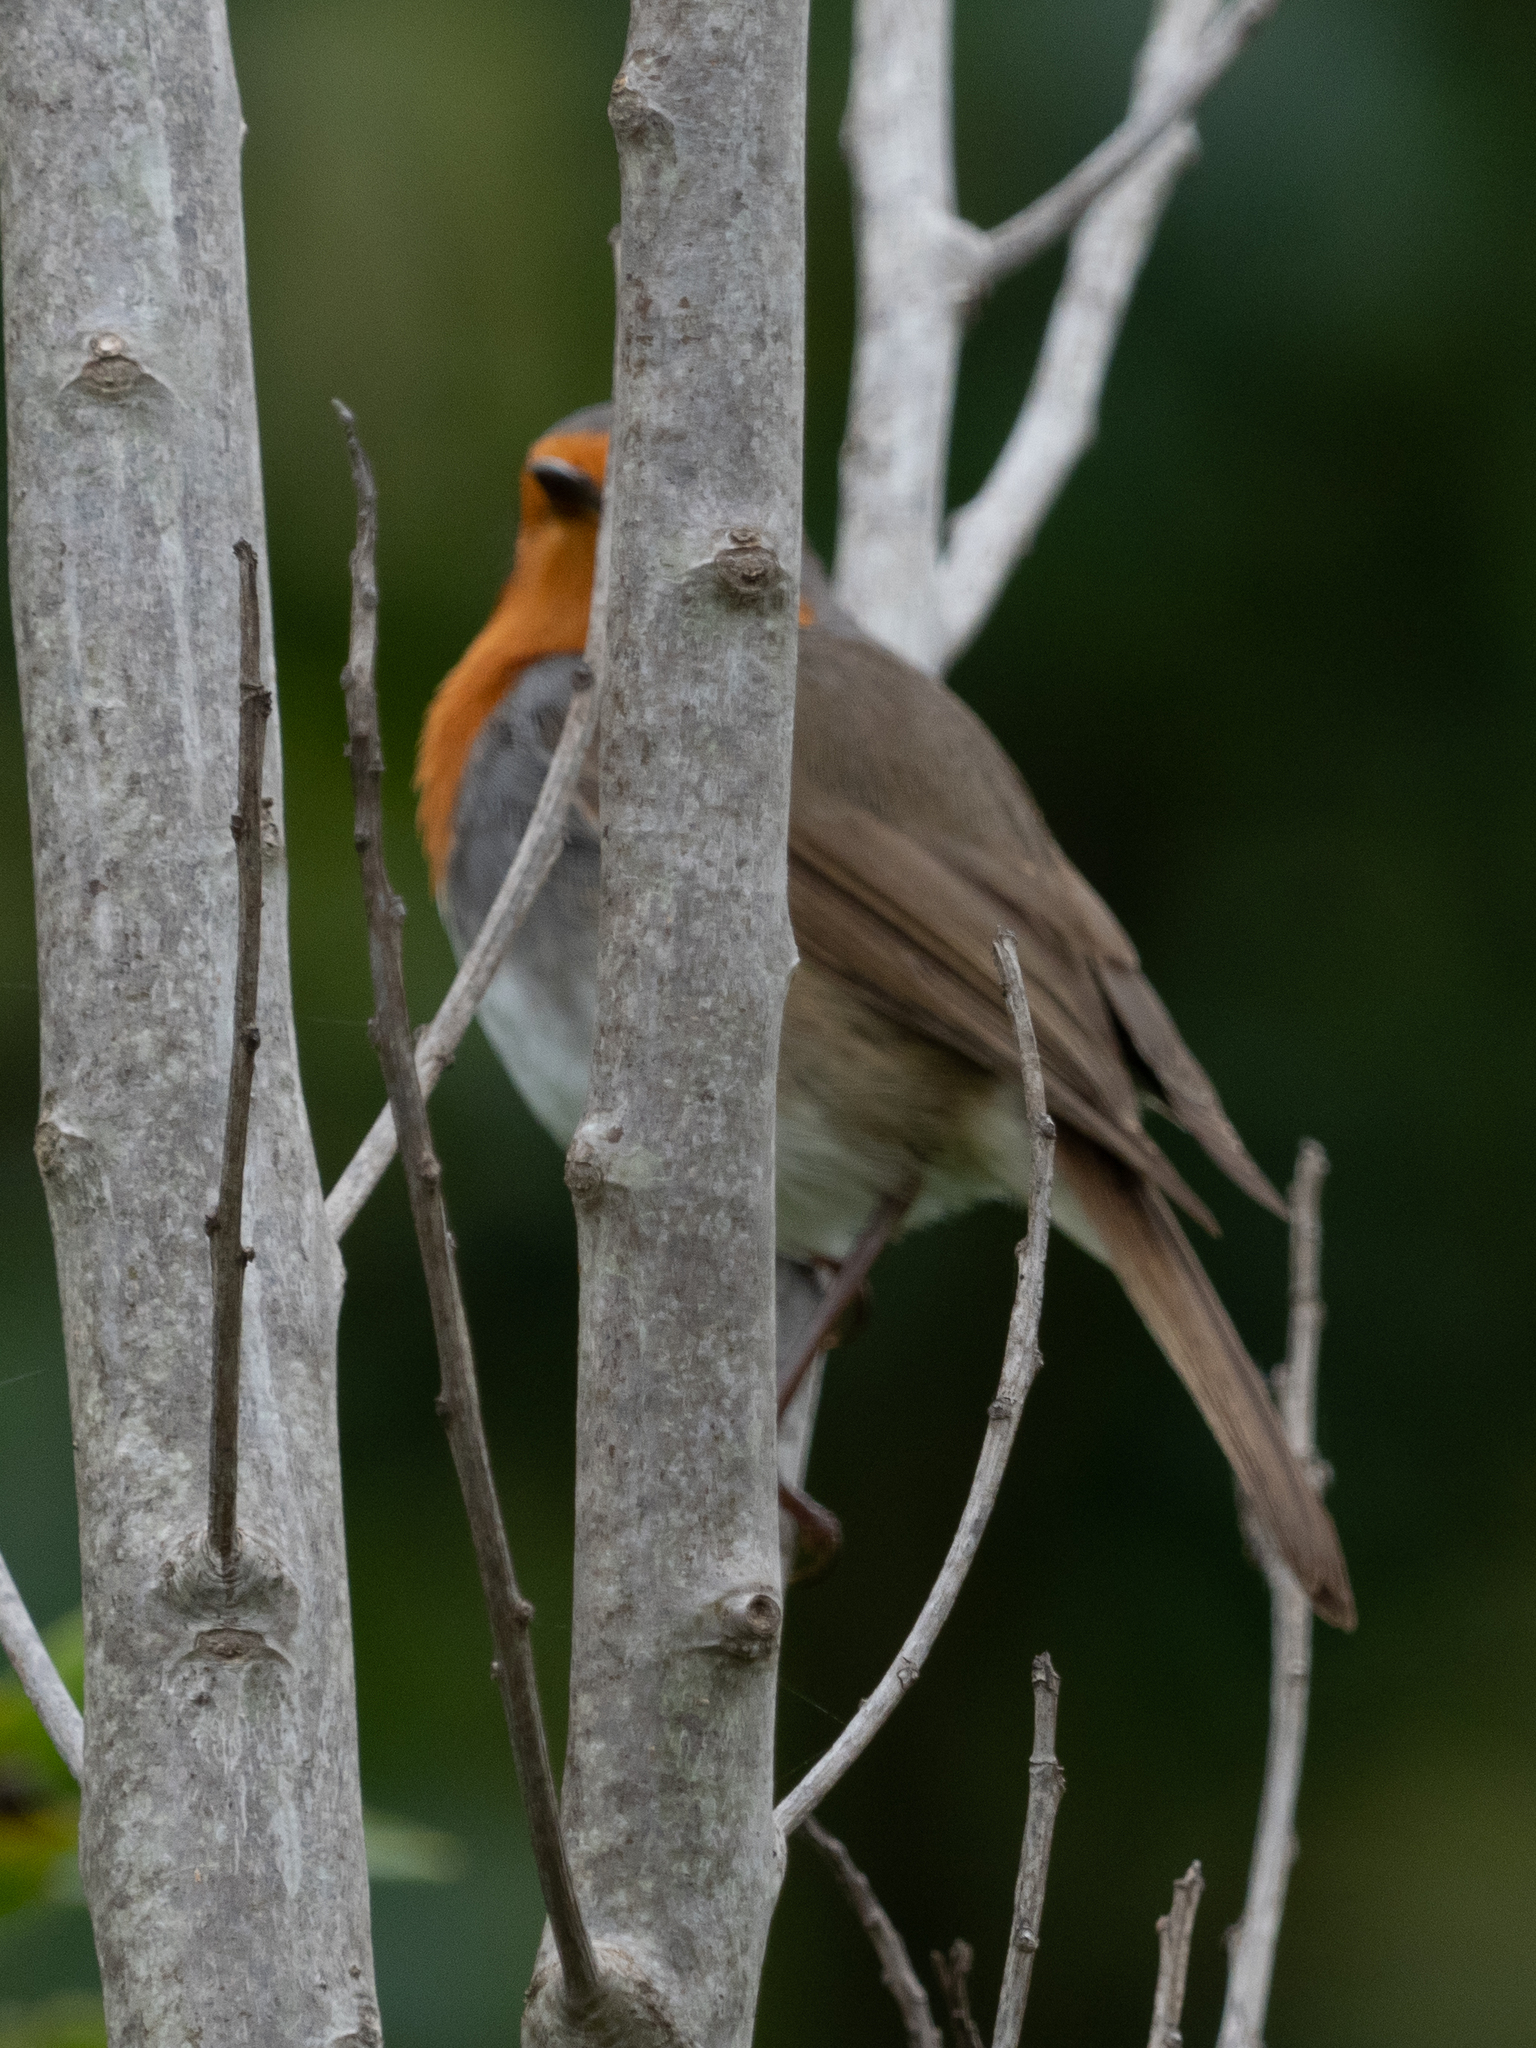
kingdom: Animalia
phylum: Chordata
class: Aves
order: Passeriformes
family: Muscicapidae
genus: Erithacus
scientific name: Erithacus rubecula
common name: European robin
